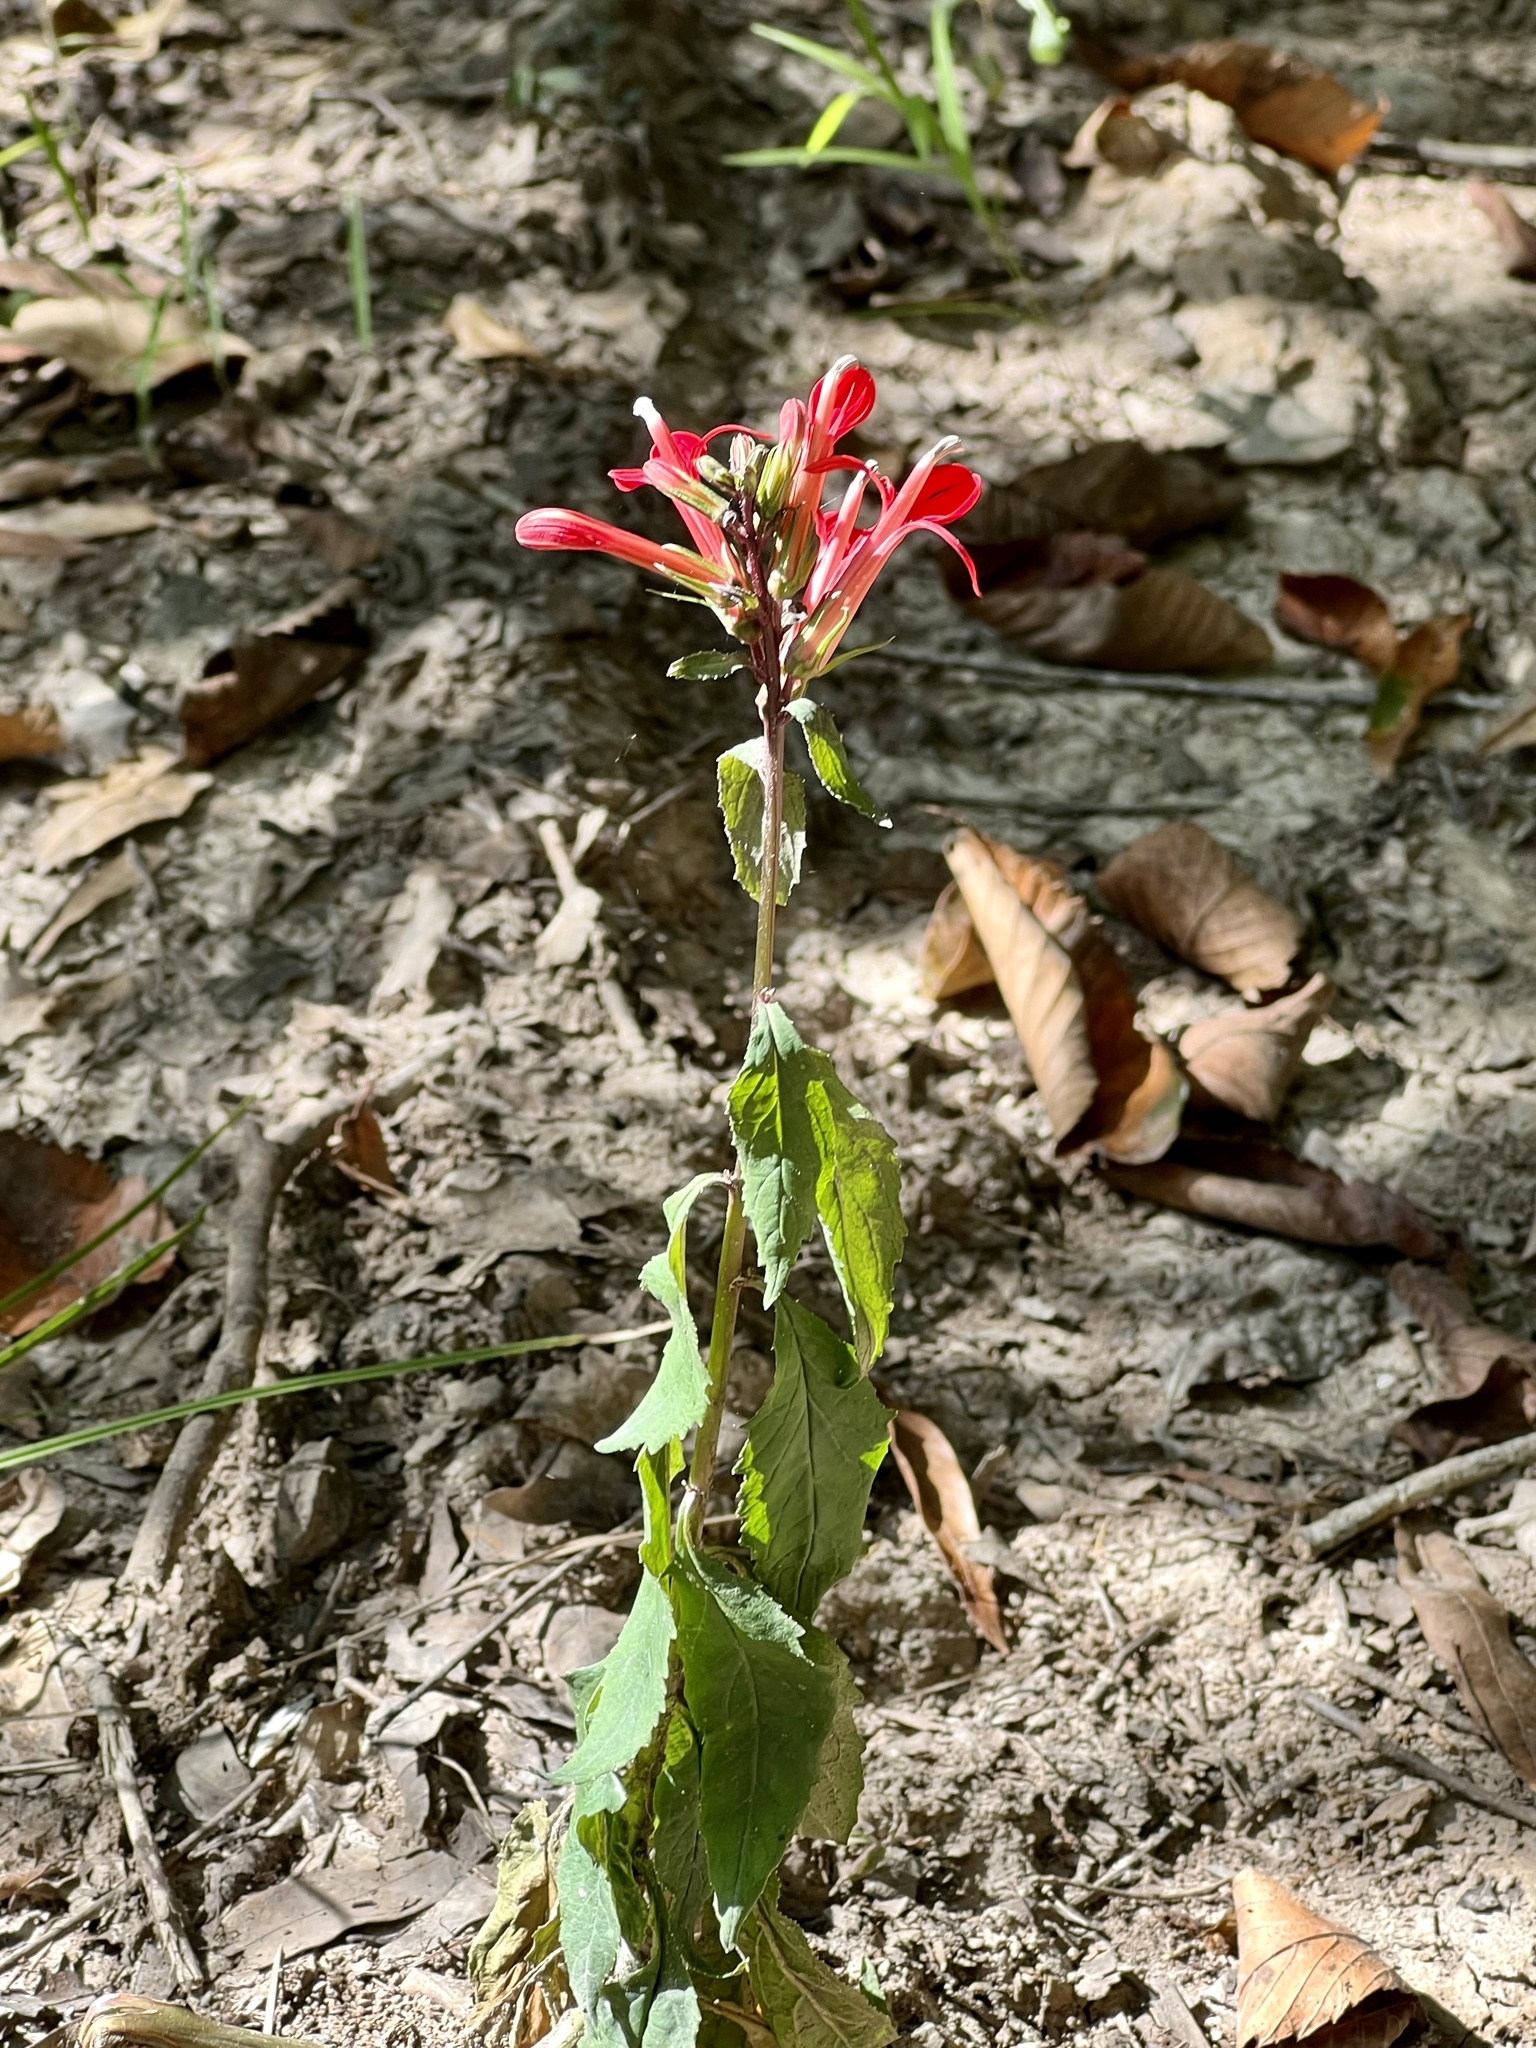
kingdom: Plantae
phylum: Tracheophyta
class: Magnoliopsida
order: Asterales
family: Campanulaceae
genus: Lobelia
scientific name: Lobelia cardinalis
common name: Cardinal flower
